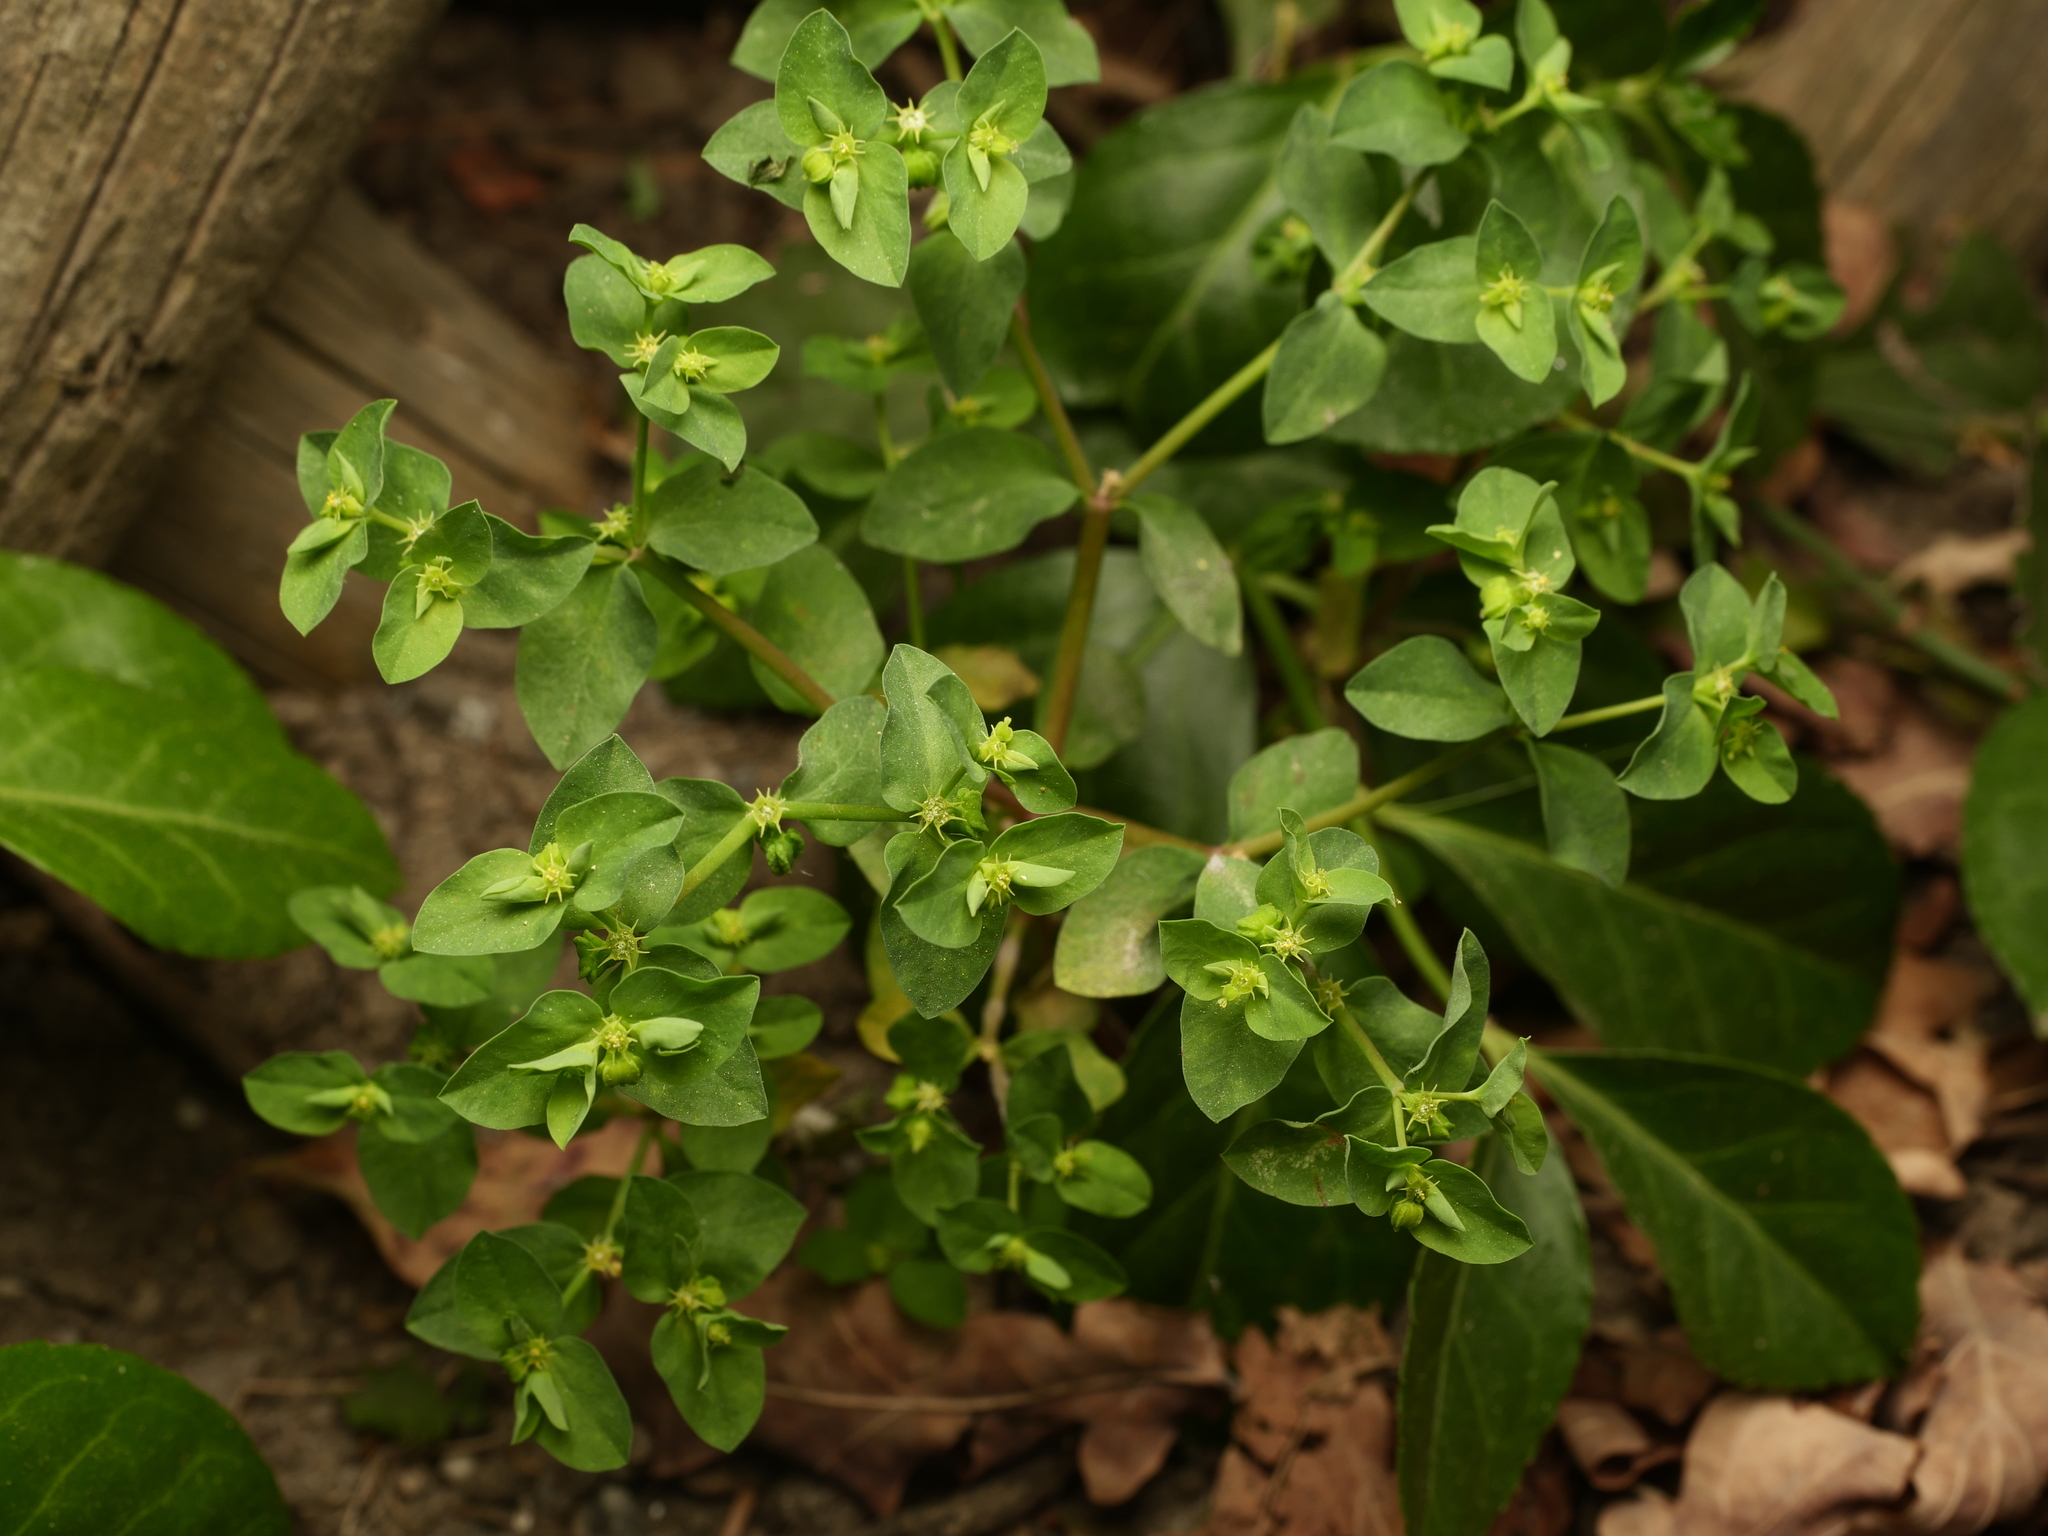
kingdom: Plantae
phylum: Tracheophyta
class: Magnoliopsida
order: Malpighiales
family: Euphorbiaceae
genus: Euphorbia
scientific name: Euphorbia peplus
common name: Petty spurge
